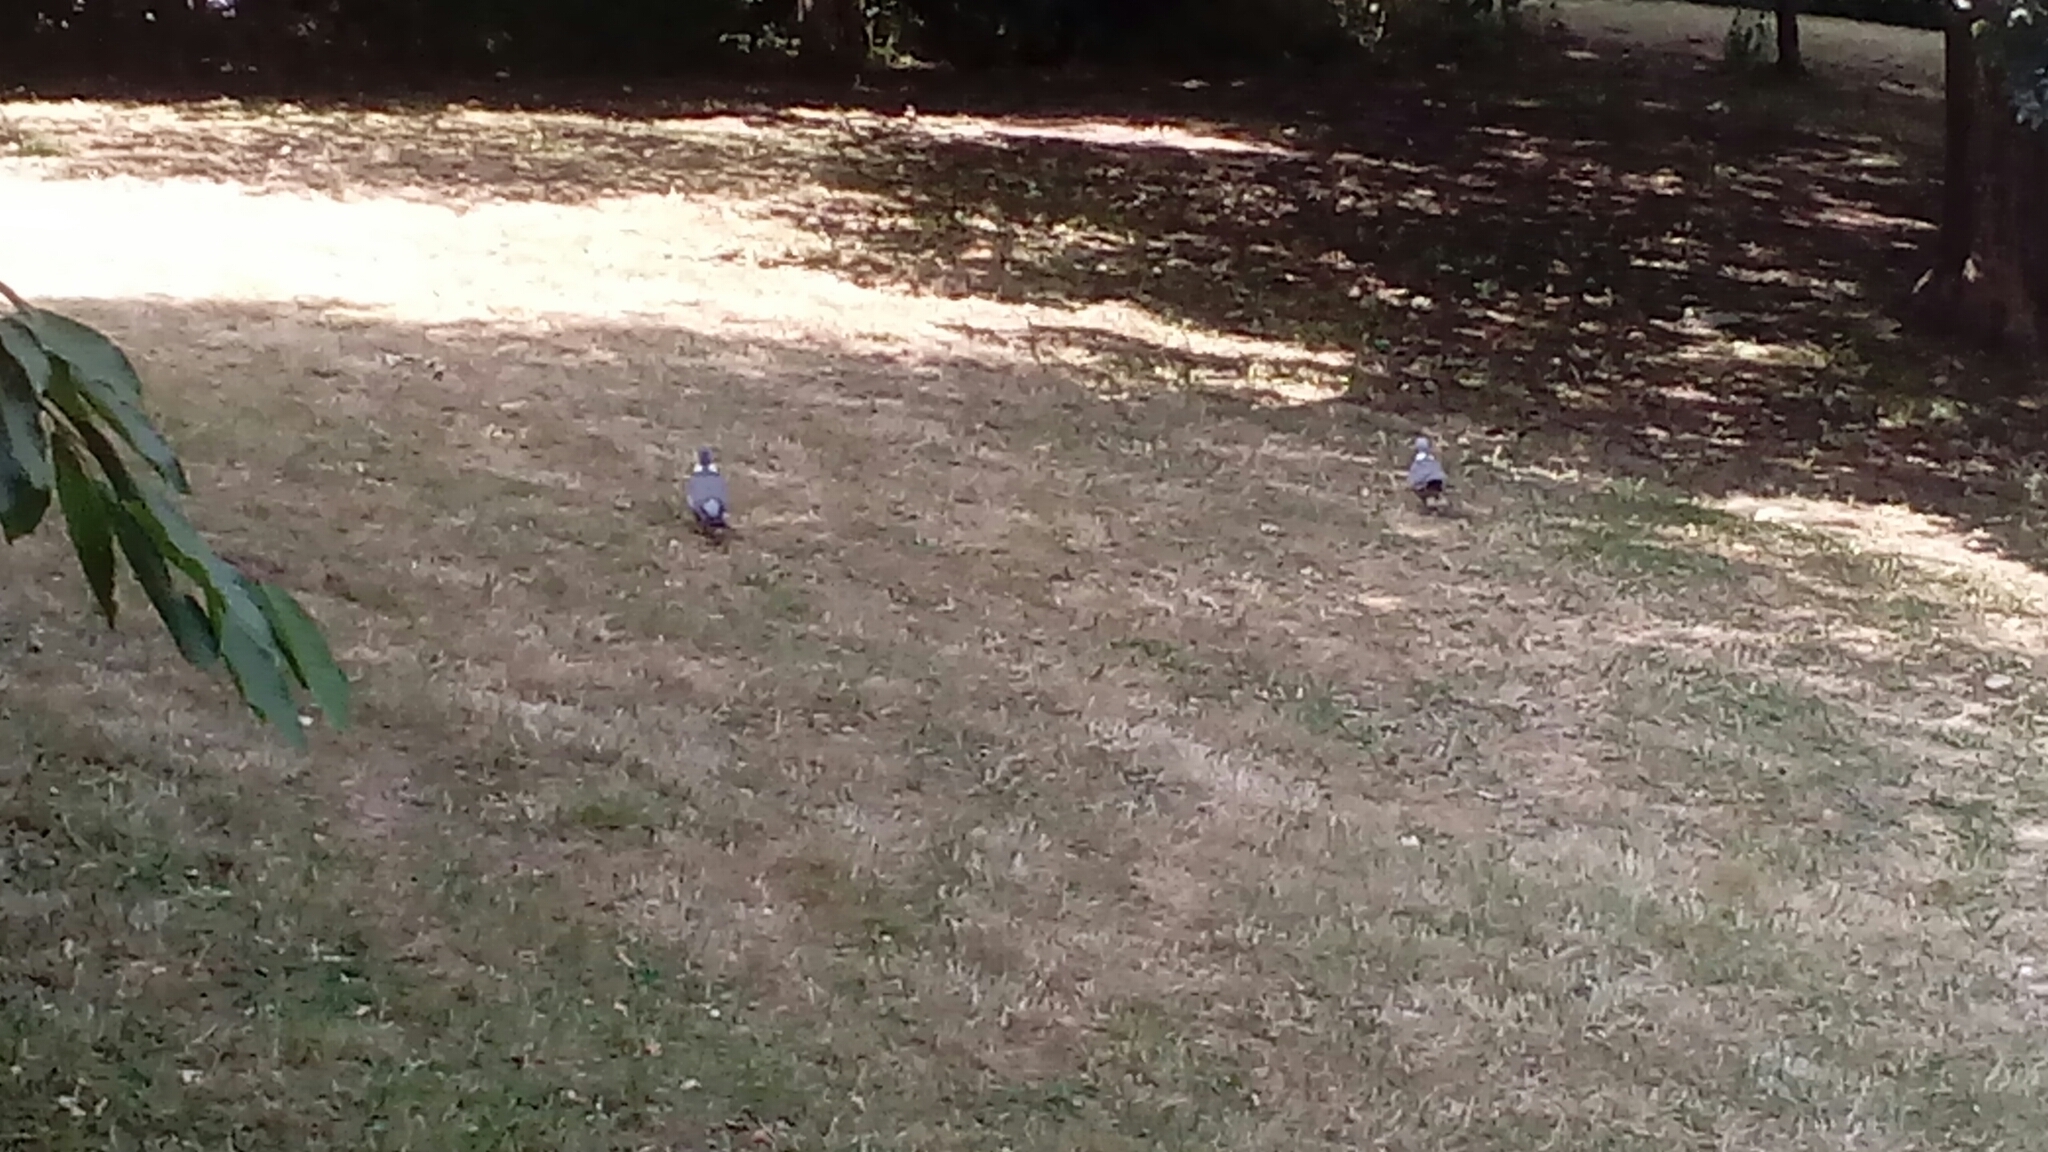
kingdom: Animalia
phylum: Chordata
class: Aves
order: Columbiformes
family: Columbidae
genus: Columba
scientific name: Columba palumbus
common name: Common wood pigeon
